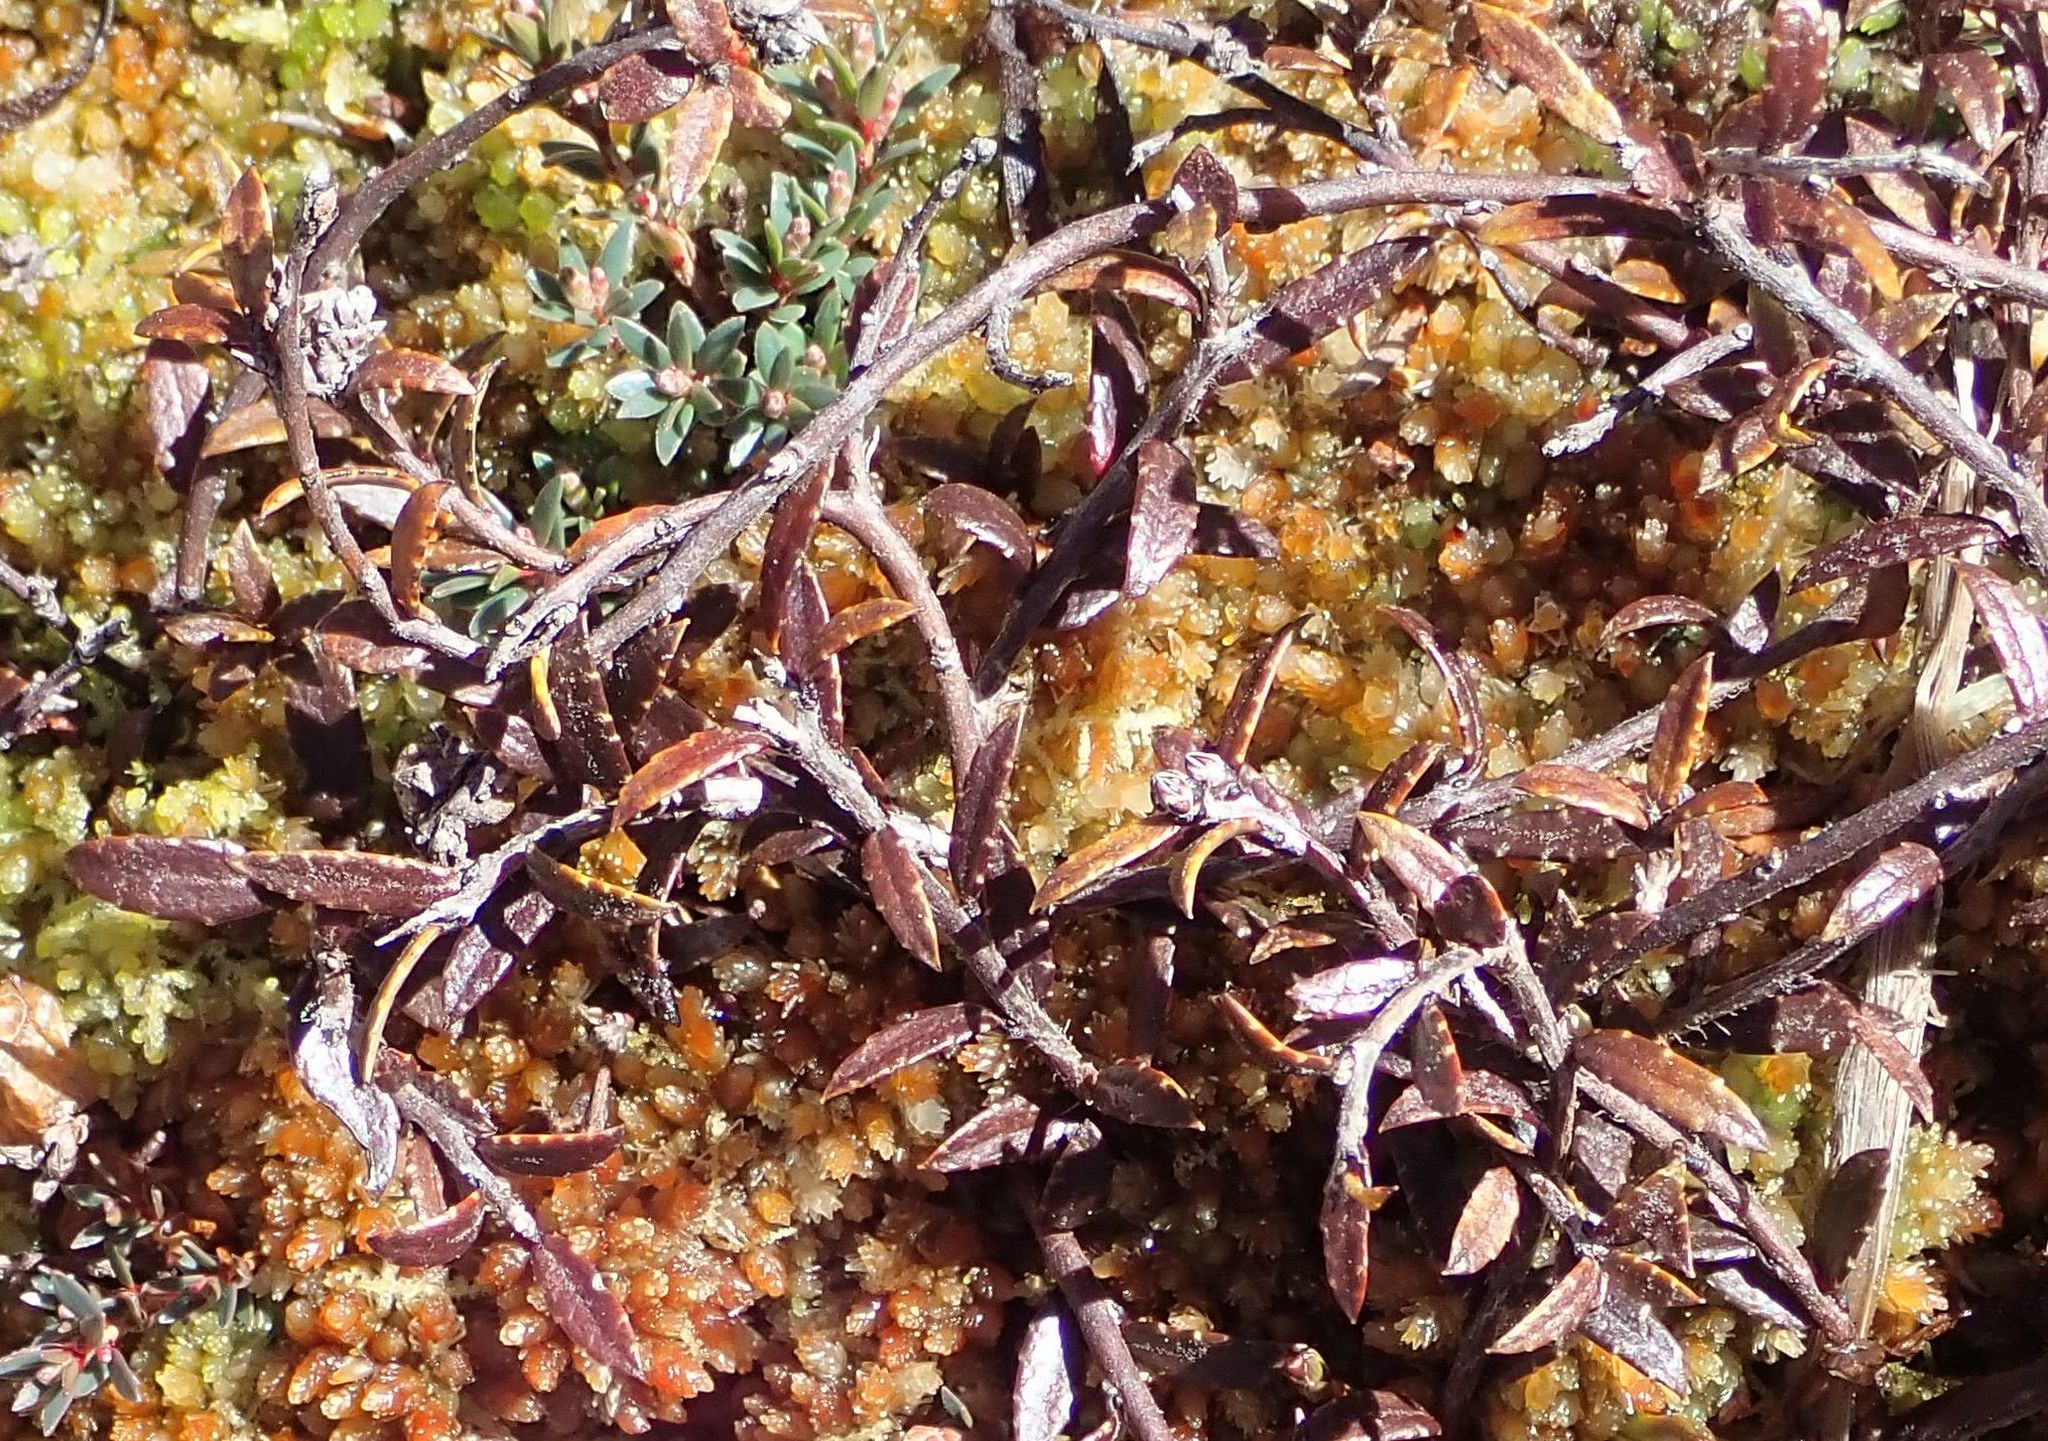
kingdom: Plantae
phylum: Tracheophyta
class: Magnoliopsida
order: Ericales
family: Ericaceae
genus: Gaultheria
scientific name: Gaultheria macrostigma
